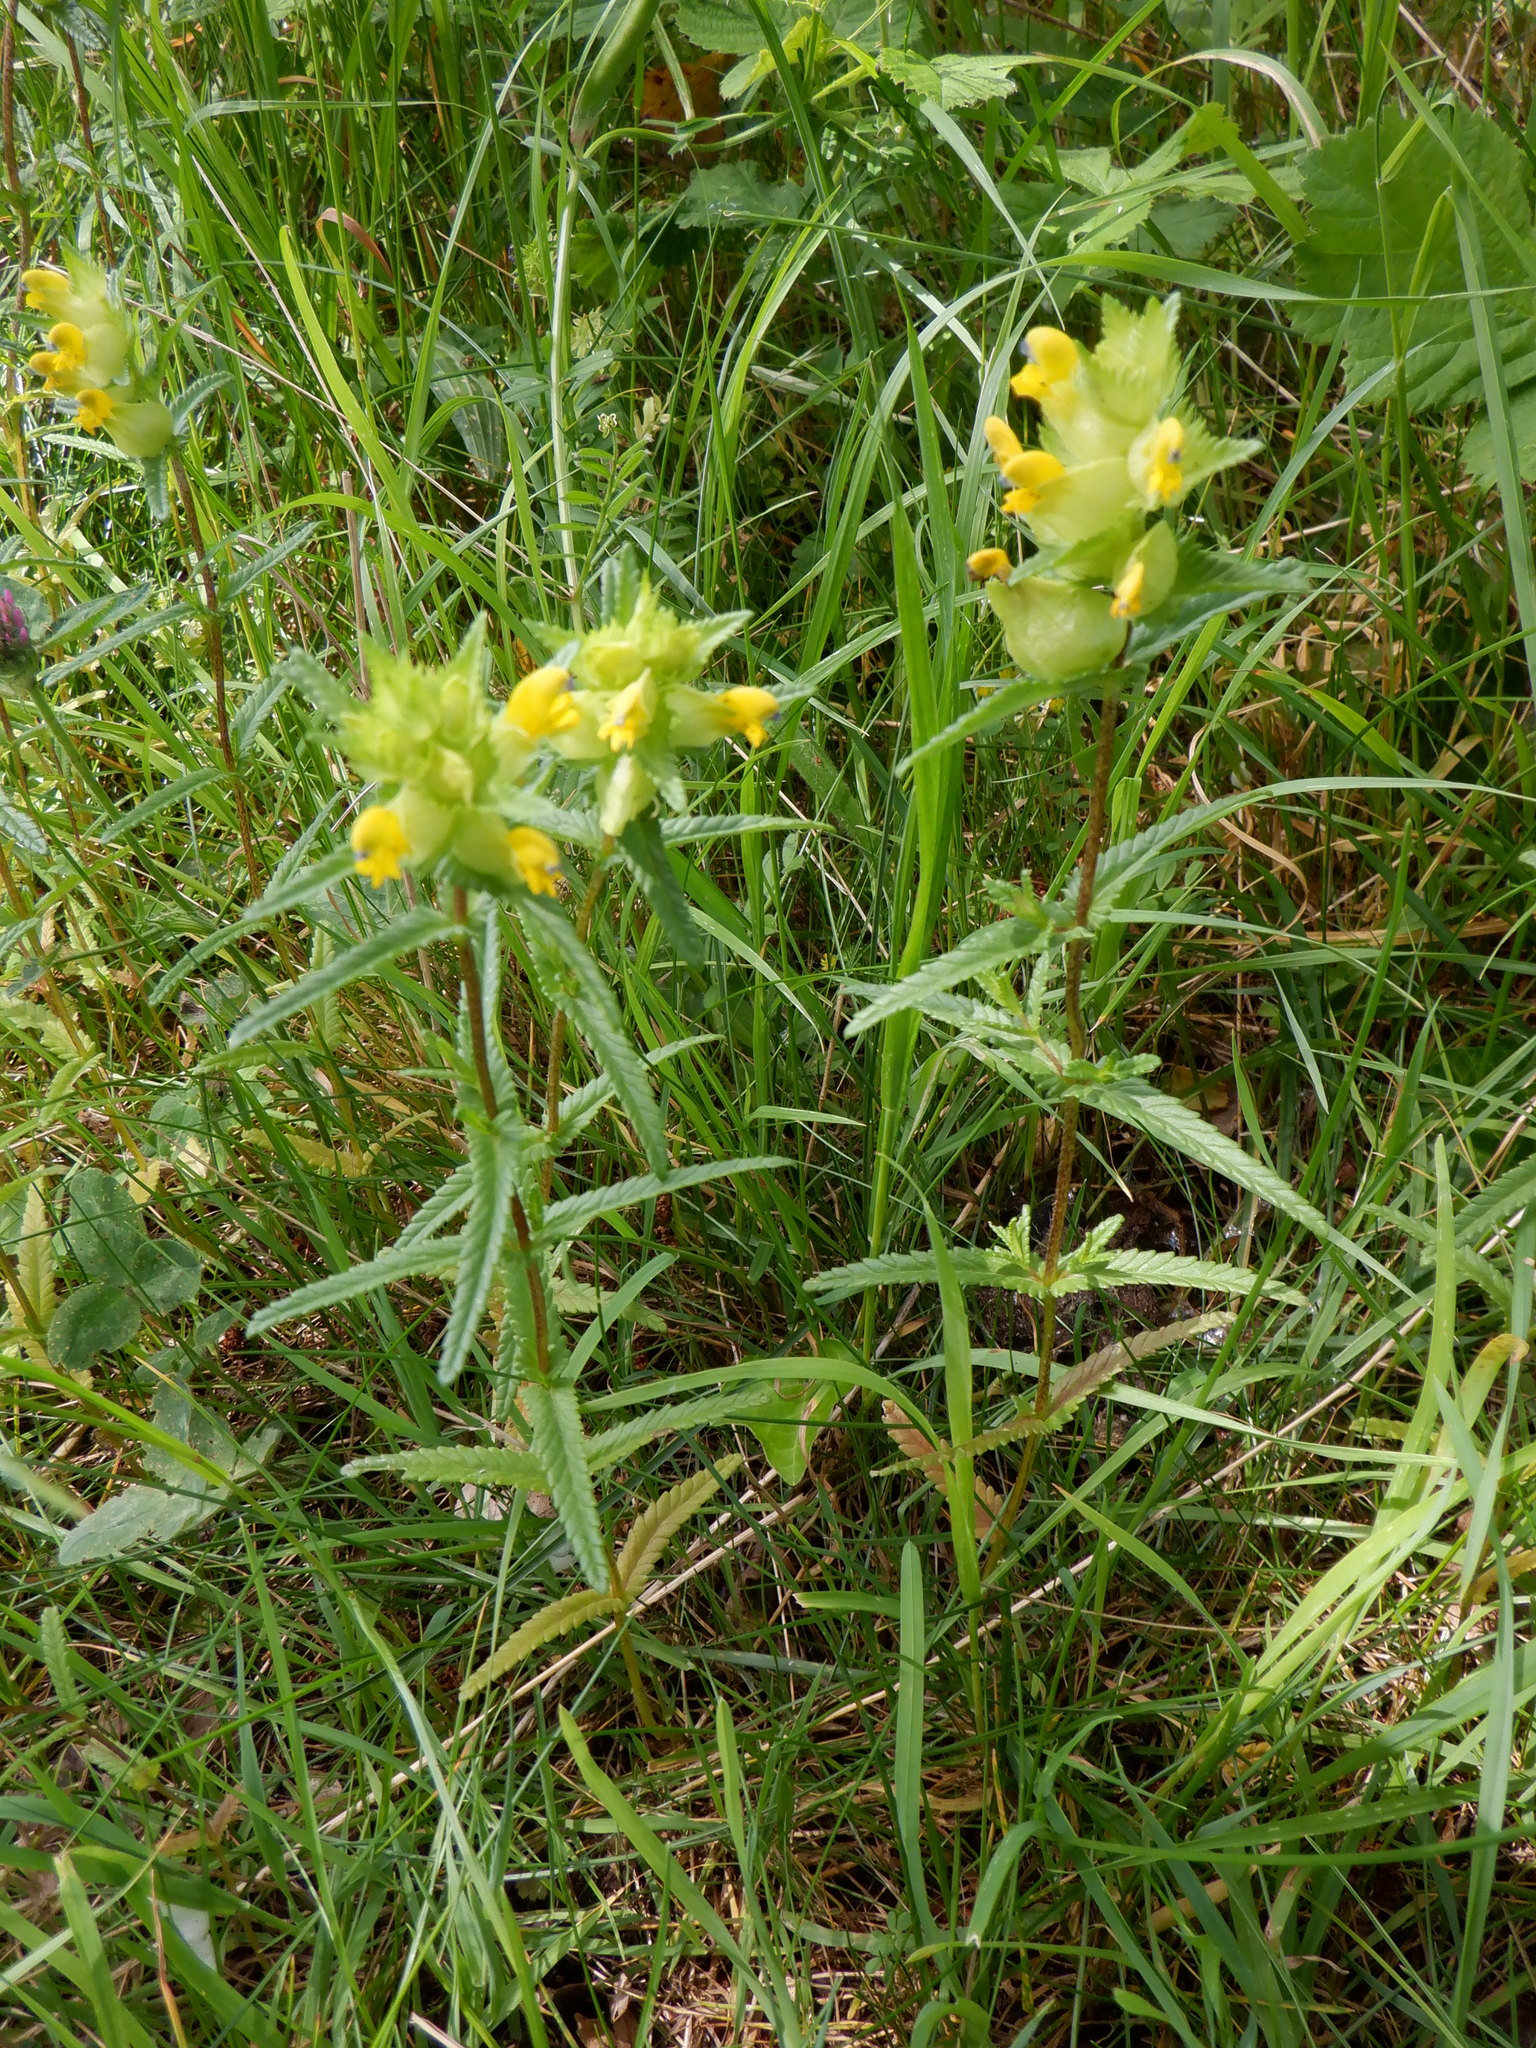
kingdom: Plantae
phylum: Tracheophyta
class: Magnoliopsida
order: Lamiales
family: Orobanchaceae
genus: Rhinanthus
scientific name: Rhinanthus minor
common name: Yellow-rattle
